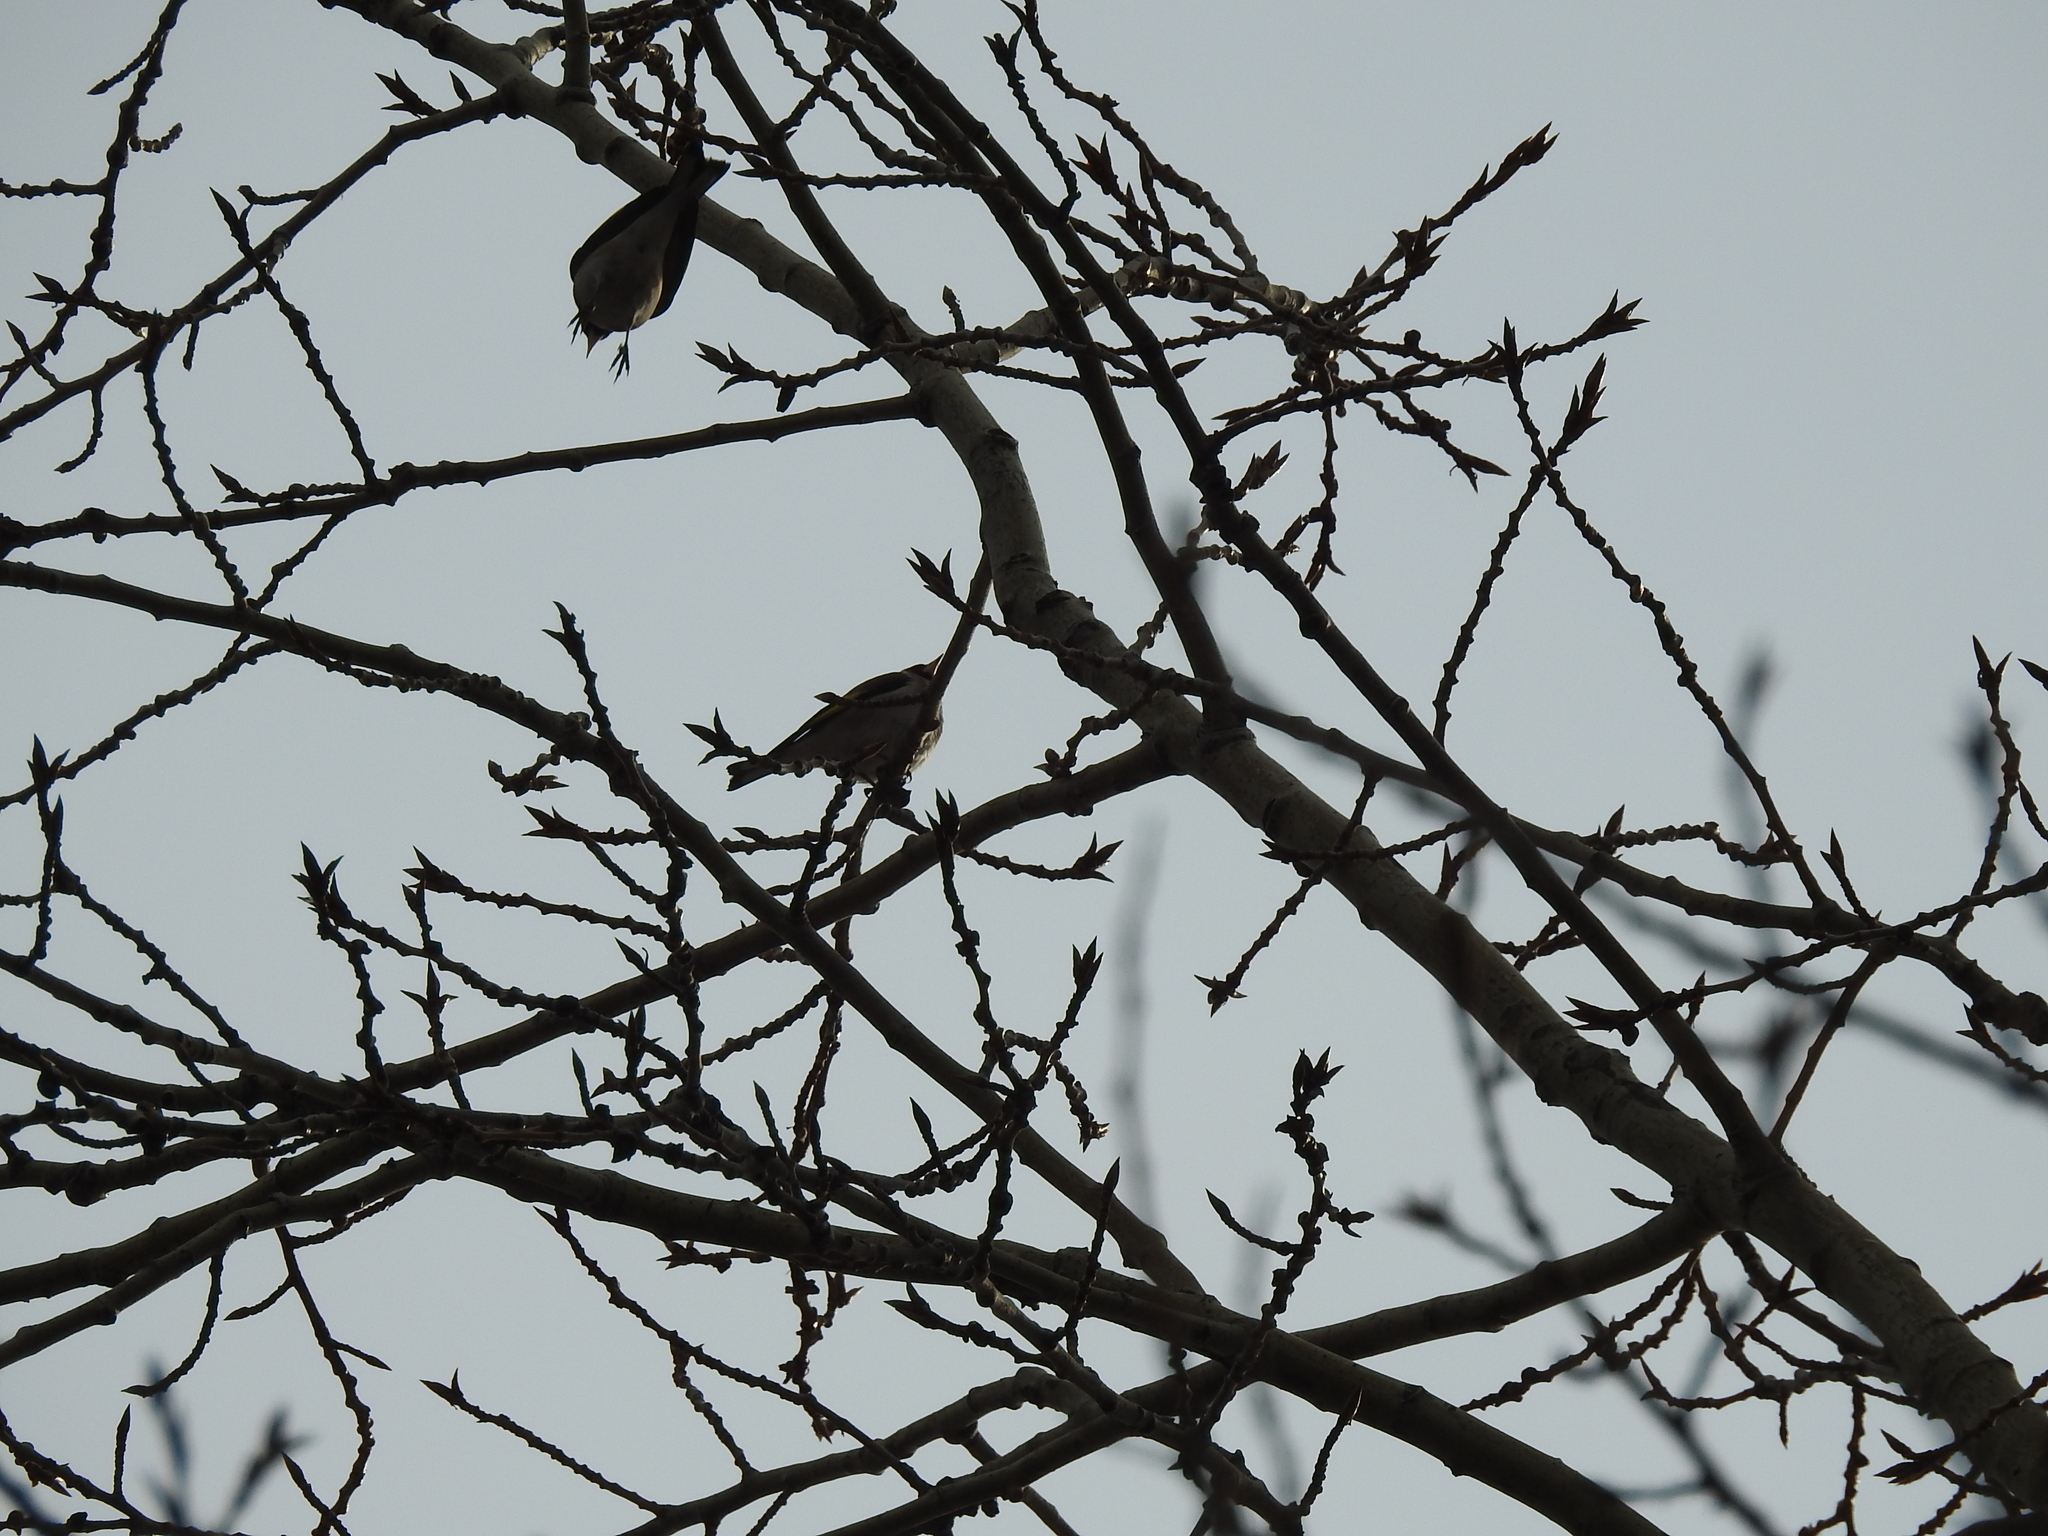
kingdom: Animalia
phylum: Chordata
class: Aves
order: Passeriformes
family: Fringillidae
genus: Carduelis
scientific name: Carduelis carduelis
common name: European goldfinch
